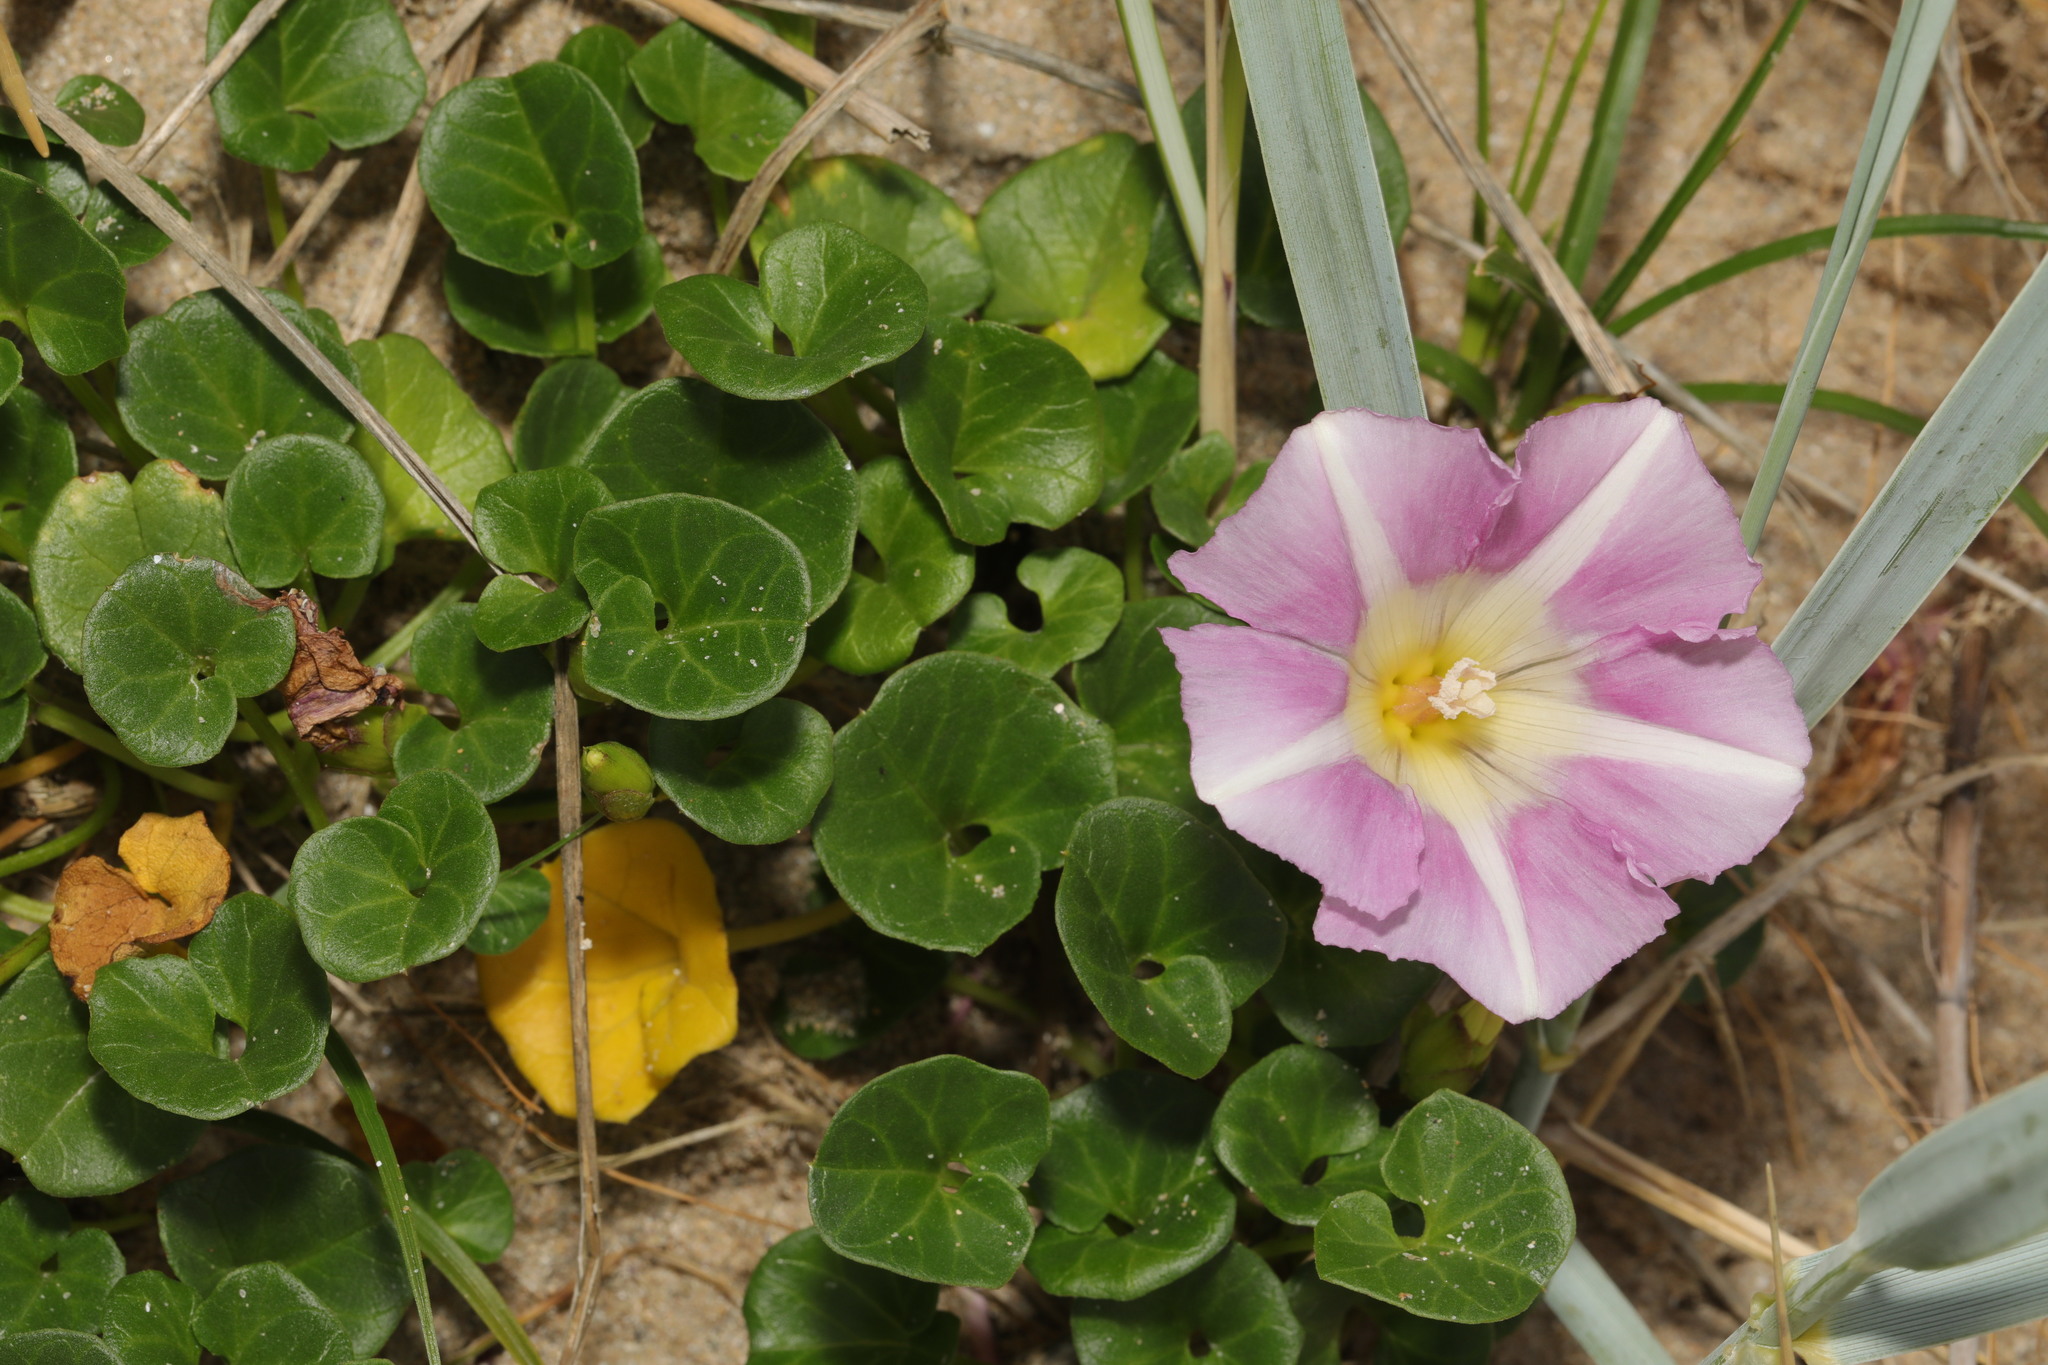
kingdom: Plantae
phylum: Tracheophyta
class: Magnoliopsida
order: Solanales
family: Convolvulaceae
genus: Calystegia
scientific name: Calystegia soldanella
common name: Sea bindweed
